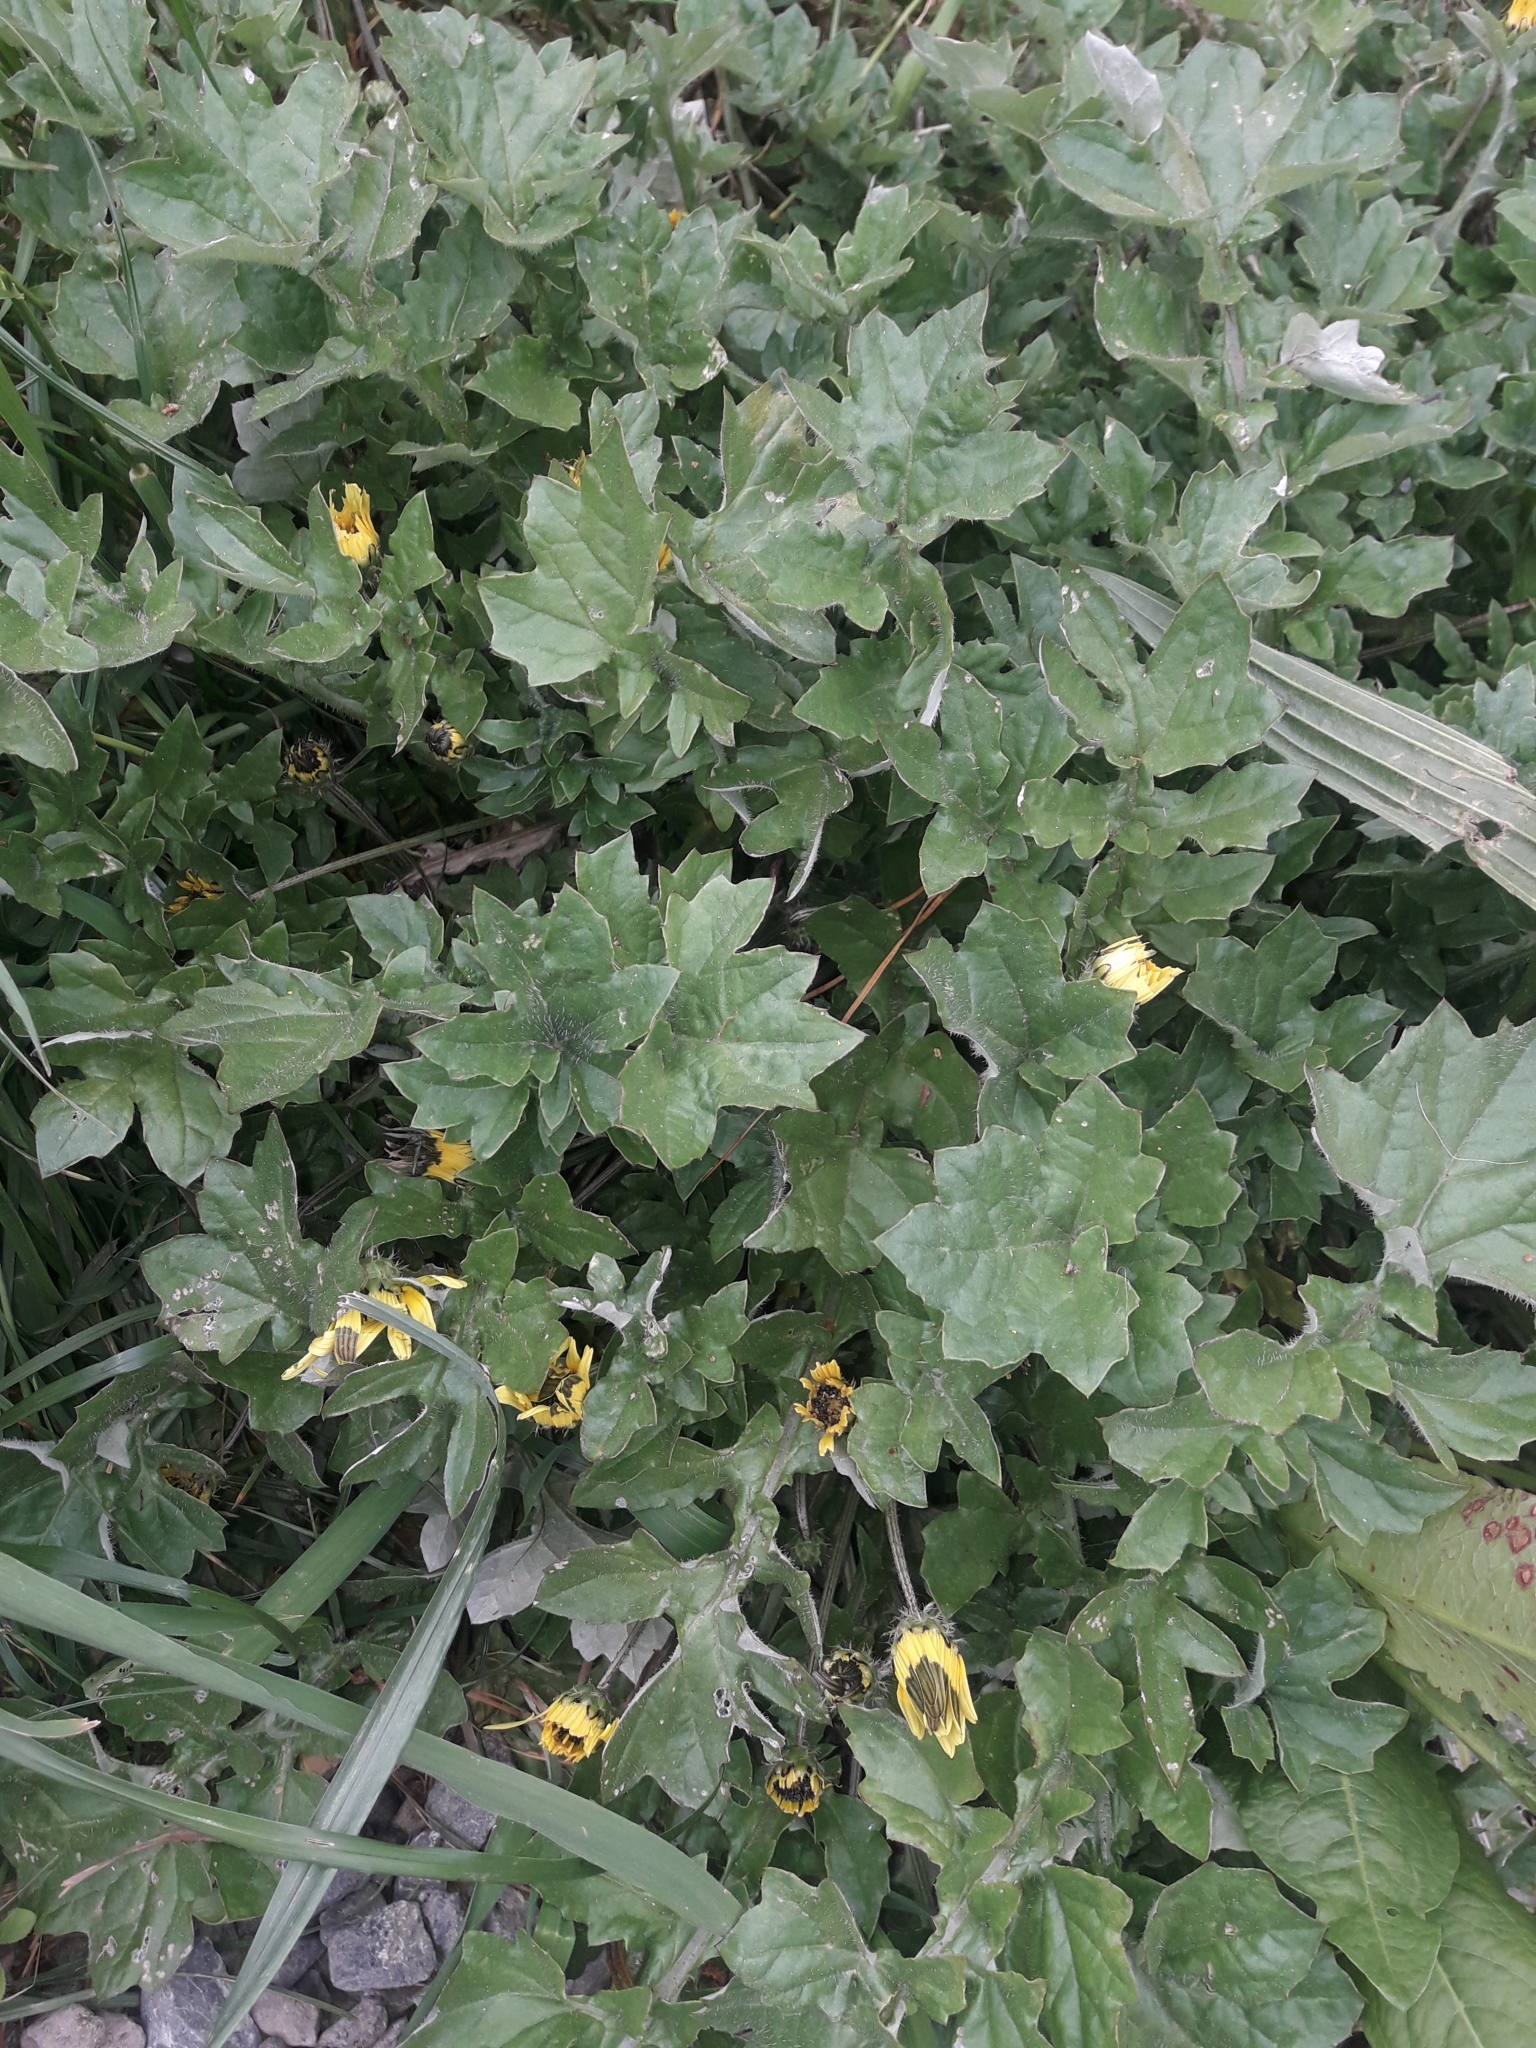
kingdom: Plantae
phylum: Tracheophyta
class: Magnoliopsida
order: Asterales
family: Asteraceae
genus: Arctotheca
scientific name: Arctotheca calendula
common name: Capeweed
